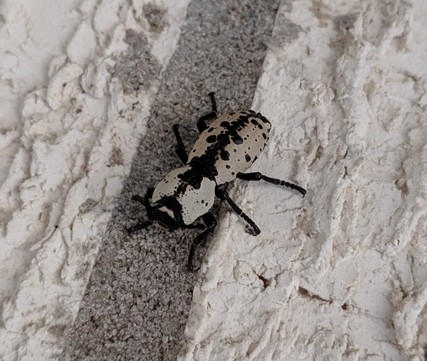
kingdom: Animalia
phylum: Arthropoda
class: Insecta
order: Coleoptera
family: Zopheridae
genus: Zopherus
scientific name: Zopherus nodulosus
